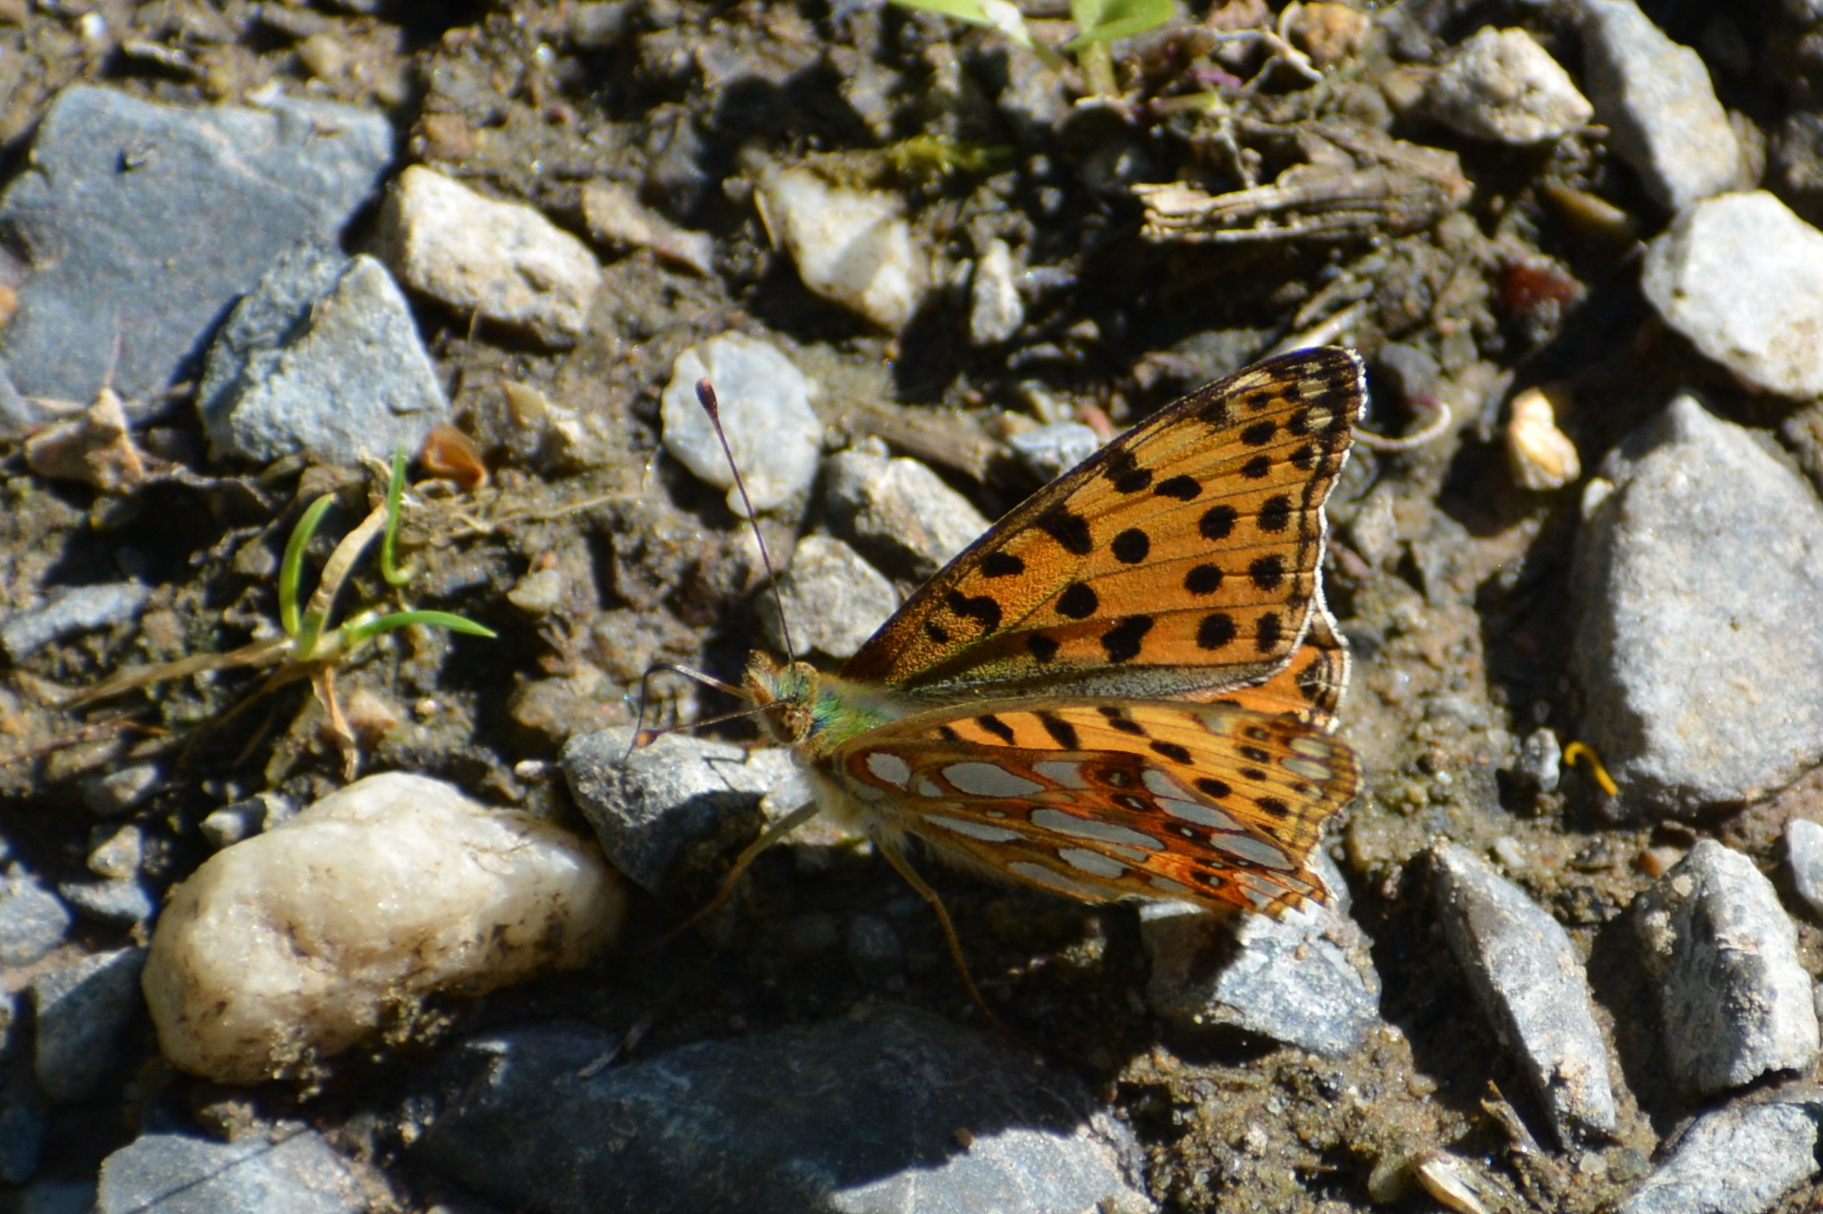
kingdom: Animalia
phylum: Arthropoda
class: Insecta
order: Lepidoptera
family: Nymphalidae
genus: Issoria
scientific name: Issoria lathonia
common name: Queen of spain fritillary
